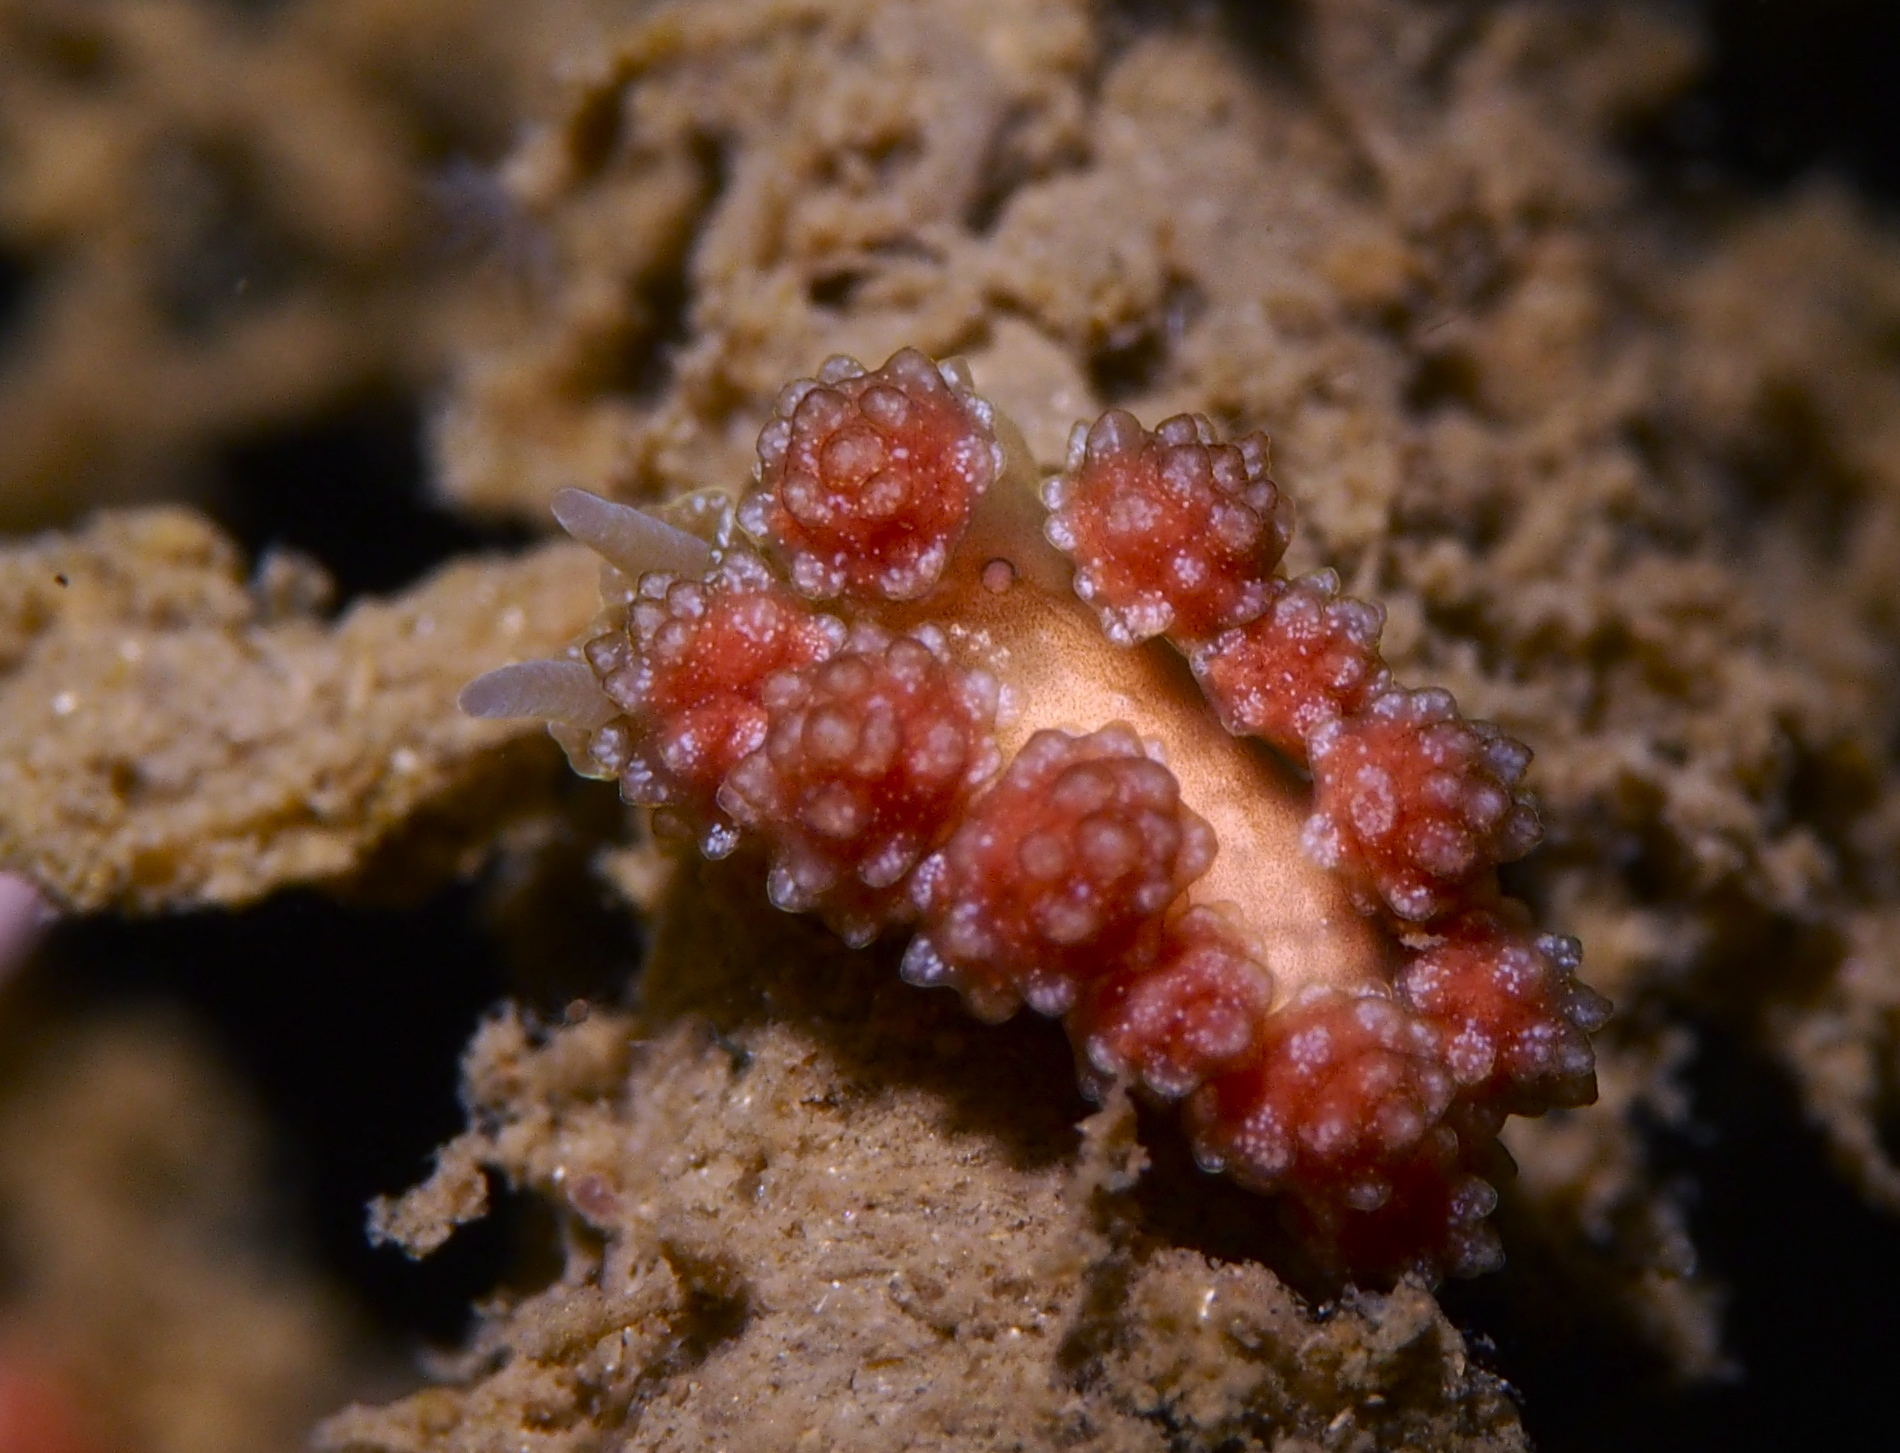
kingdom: Animalia
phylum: Mollusca
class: Gastropoda
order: Nudibranchia
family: Dotidae
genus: Doto
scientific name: Doto fragilis
